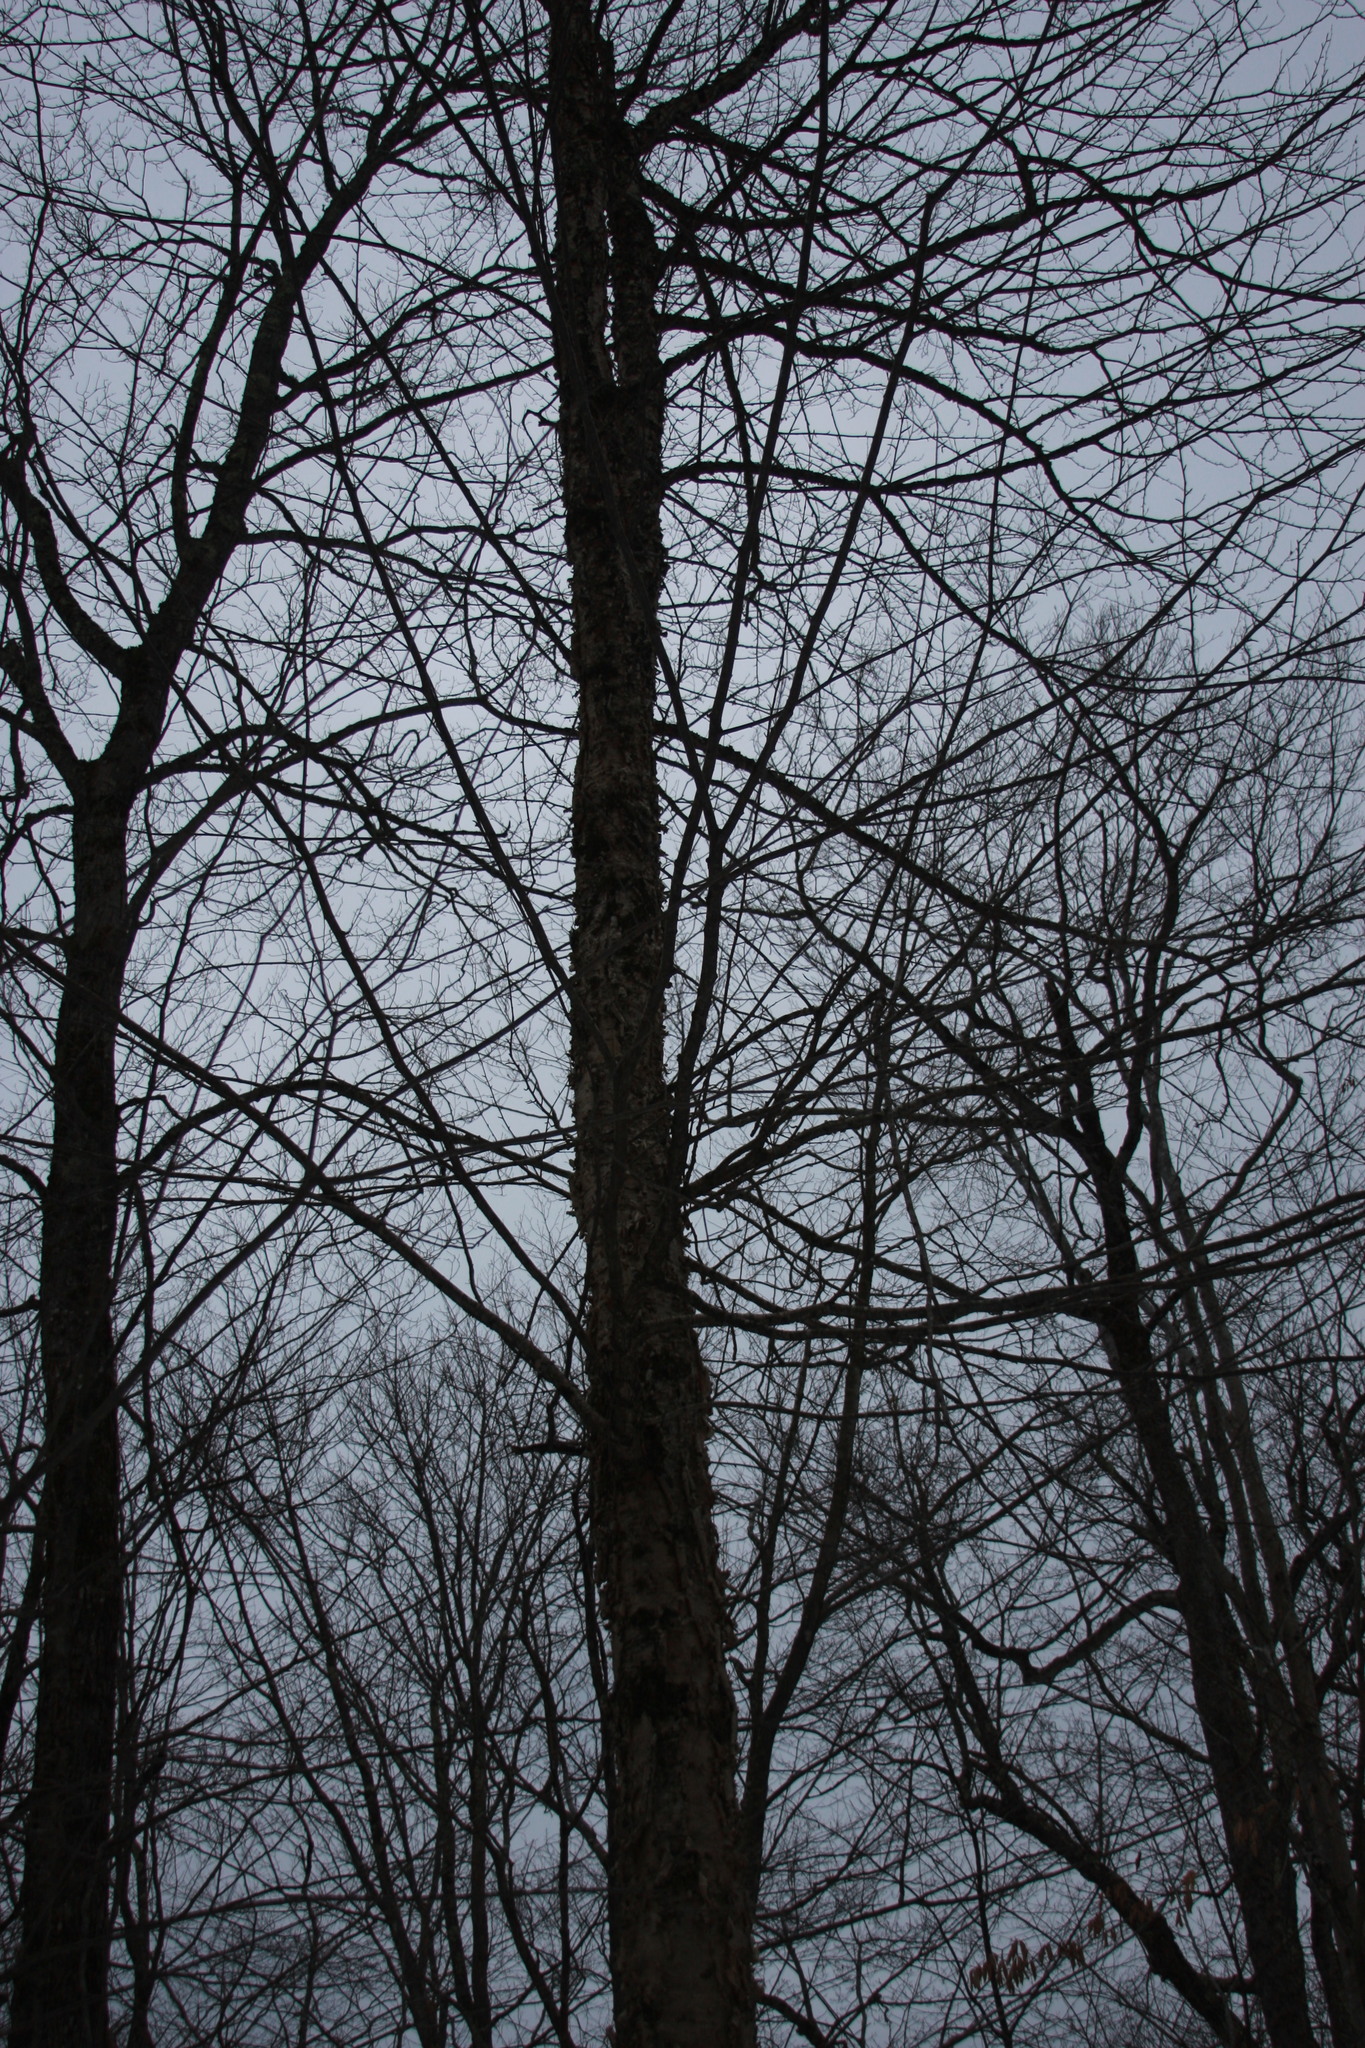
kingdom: Plantae
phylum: Tracheophyta
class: Magnoliopsida
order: Fagales
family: Betulaceae
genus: Betula
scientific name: Betula alleghaniensis
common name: Yellow birch
